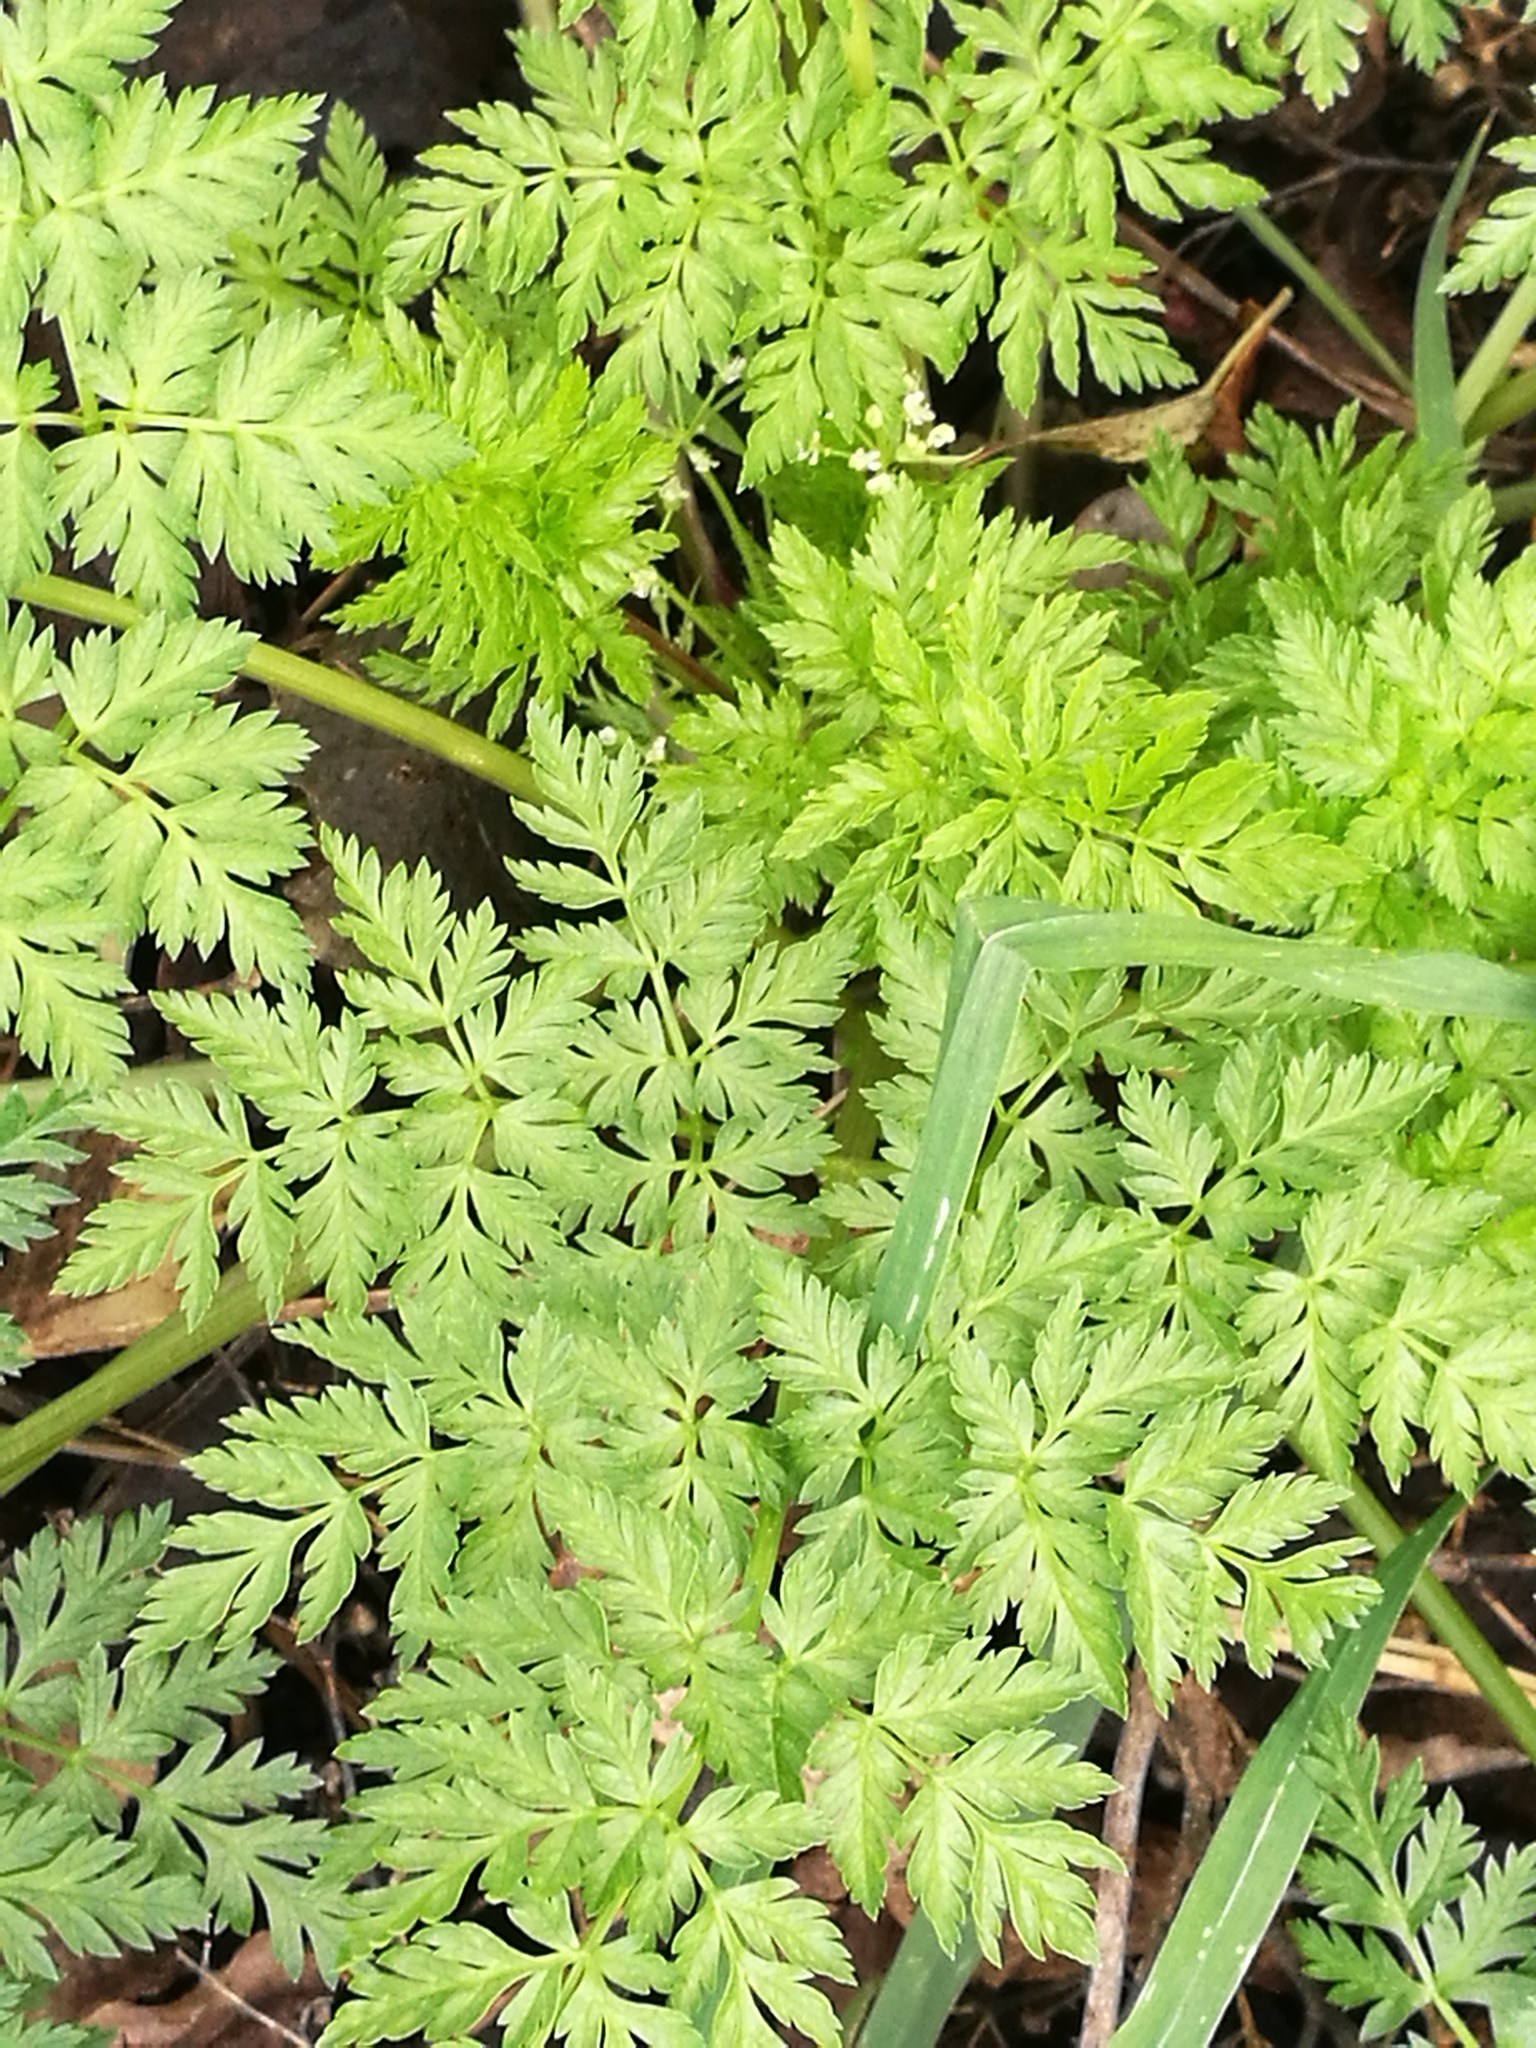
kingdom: Plantae
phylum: Tracheophyta
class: Magnoliopsida
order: Apiales
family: Apiaceae
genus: Conium
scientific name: Conium maculatum
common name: Hemlock
